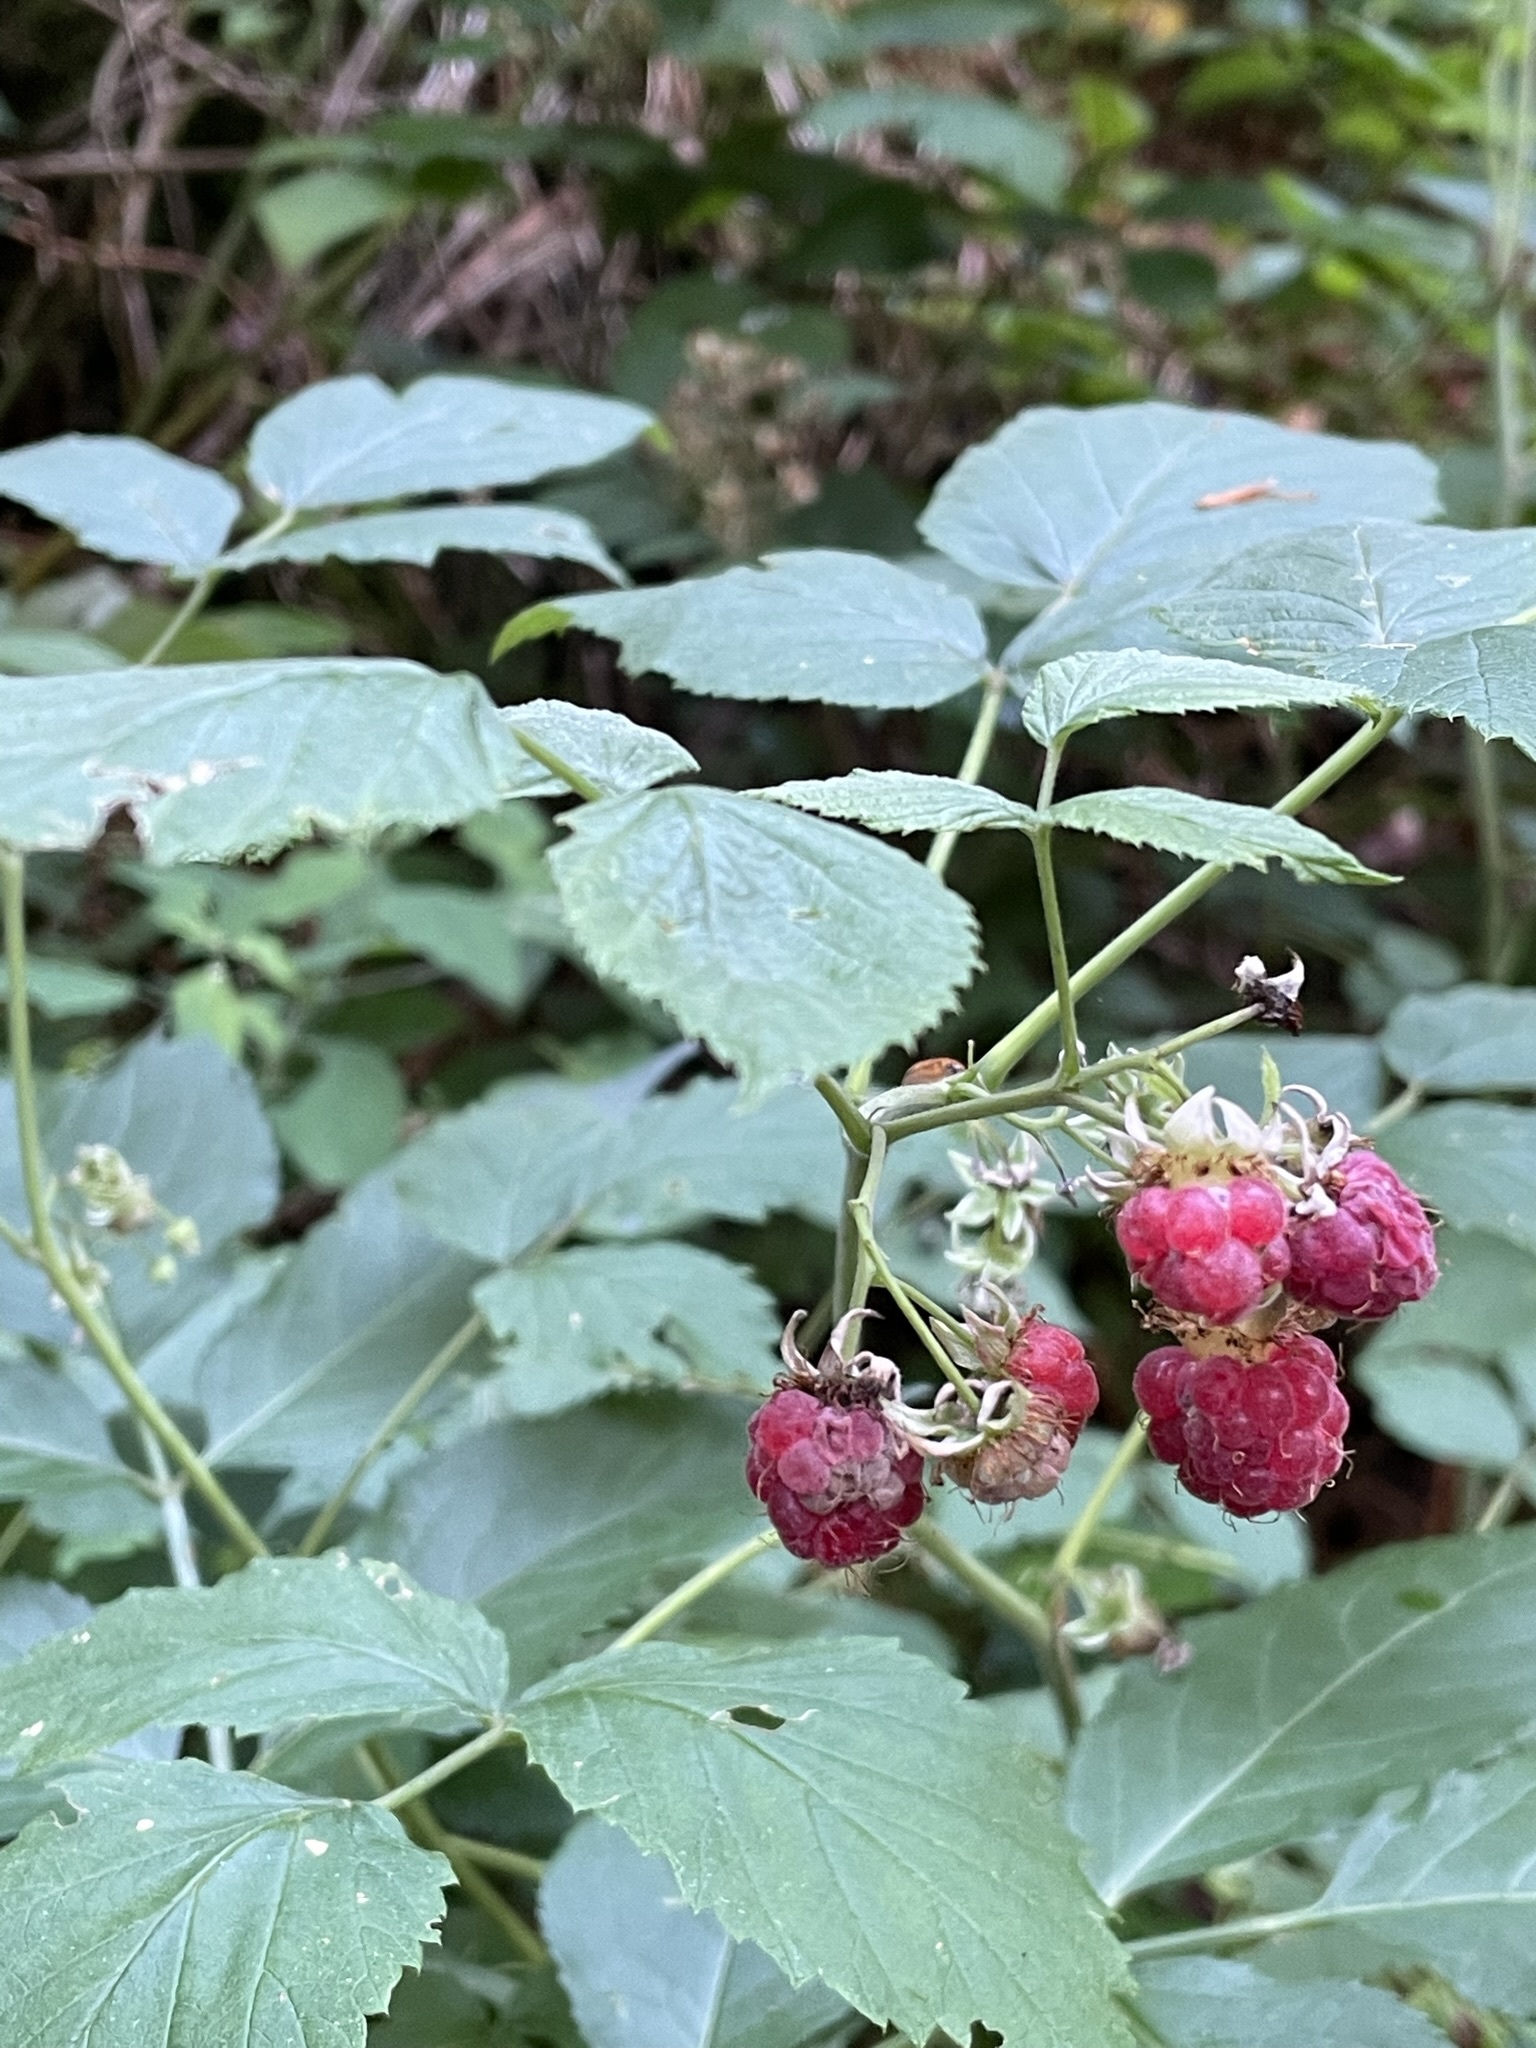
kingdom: Plantae
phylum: Tracheophyta
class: Magnoliopsida
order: Rosales
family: Rosaceae
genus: Rubus
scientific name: Rubus idaeus
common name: Raspberry
